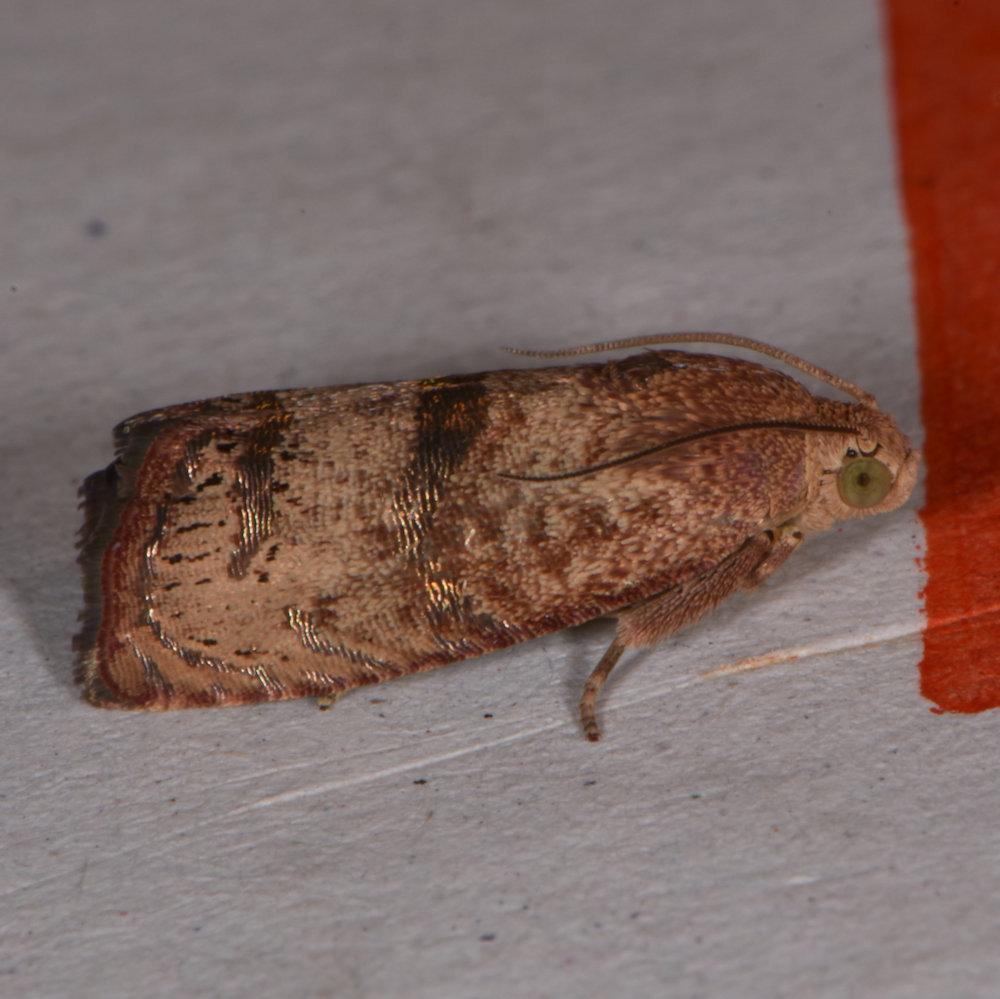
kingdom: Animalia
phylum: Arthropoda
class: Insecta
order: Lepidoptera
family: Tortricidae
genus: Cydia
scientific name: Cydia latiferreana
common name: Filbertworm moth
